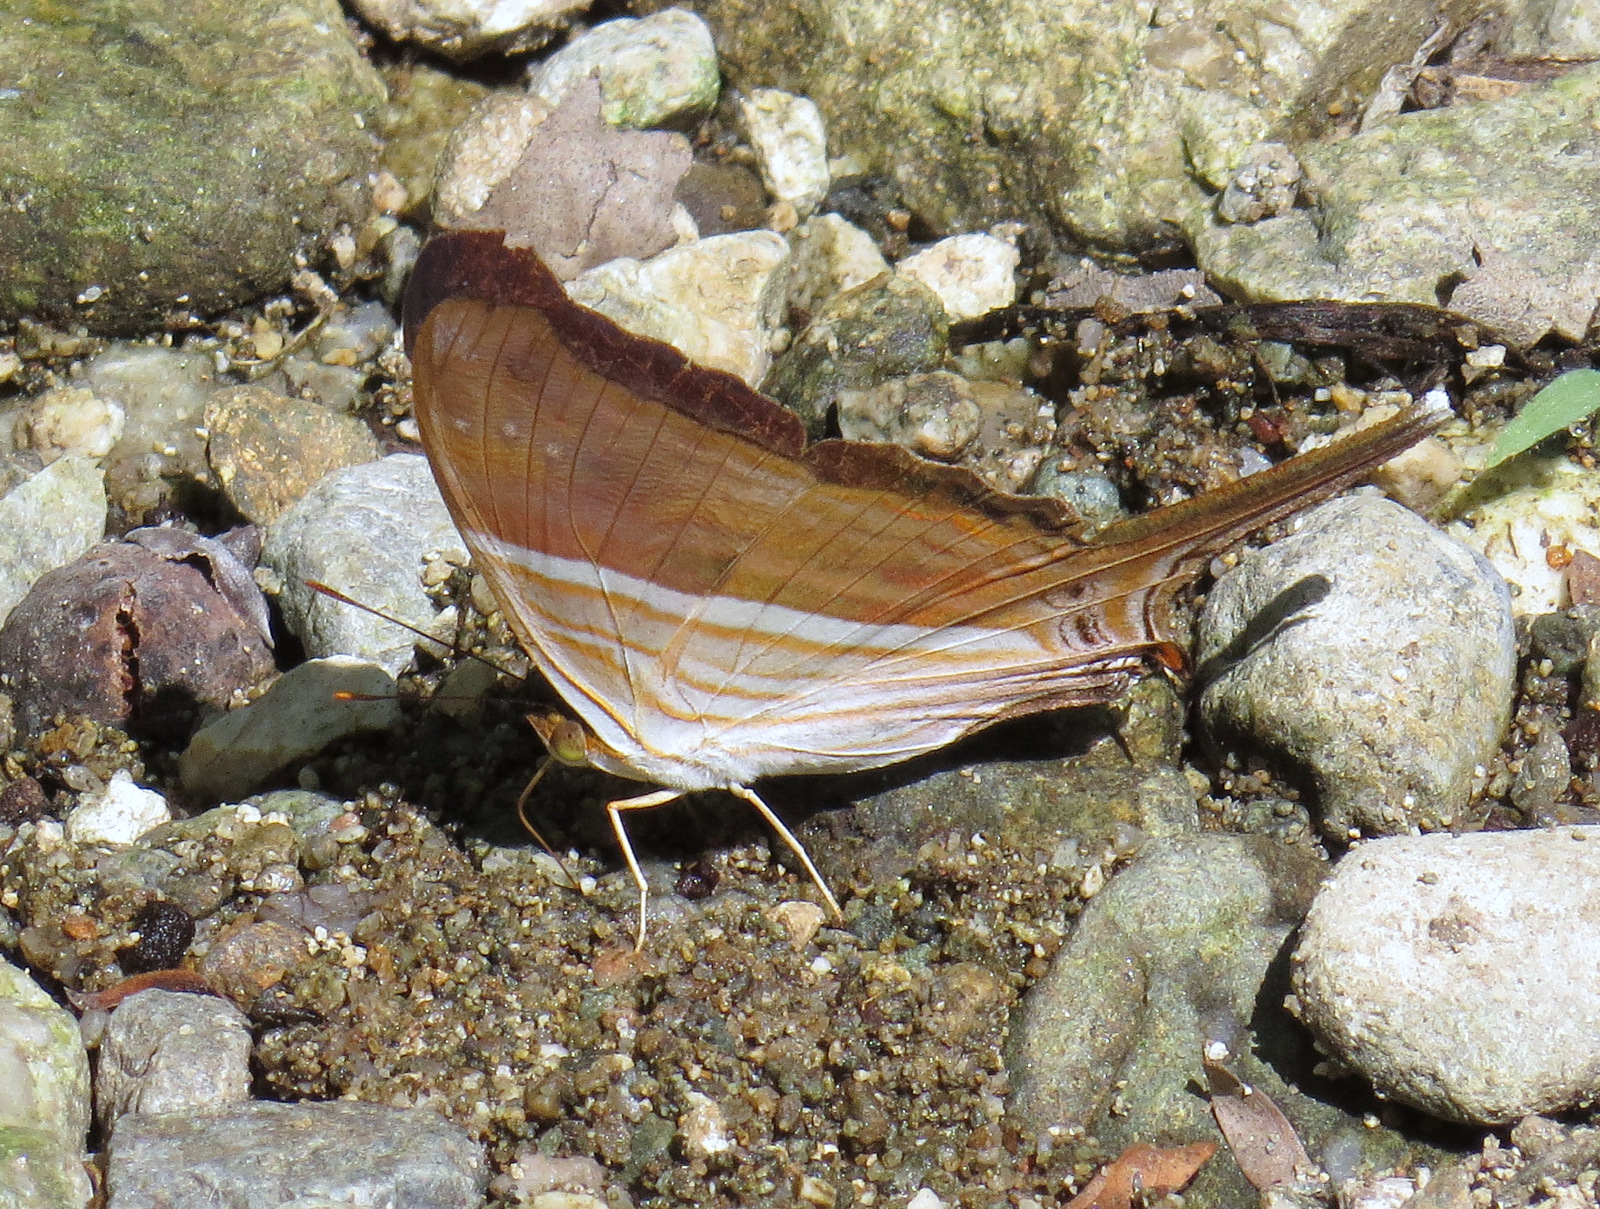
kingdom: Animalia
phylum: Arthropoda
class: Insecta
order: Lepidoptera
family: Nymphalidae
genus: Marpesia
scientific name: Marpesia chiron
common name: Many-banded daggerwing
